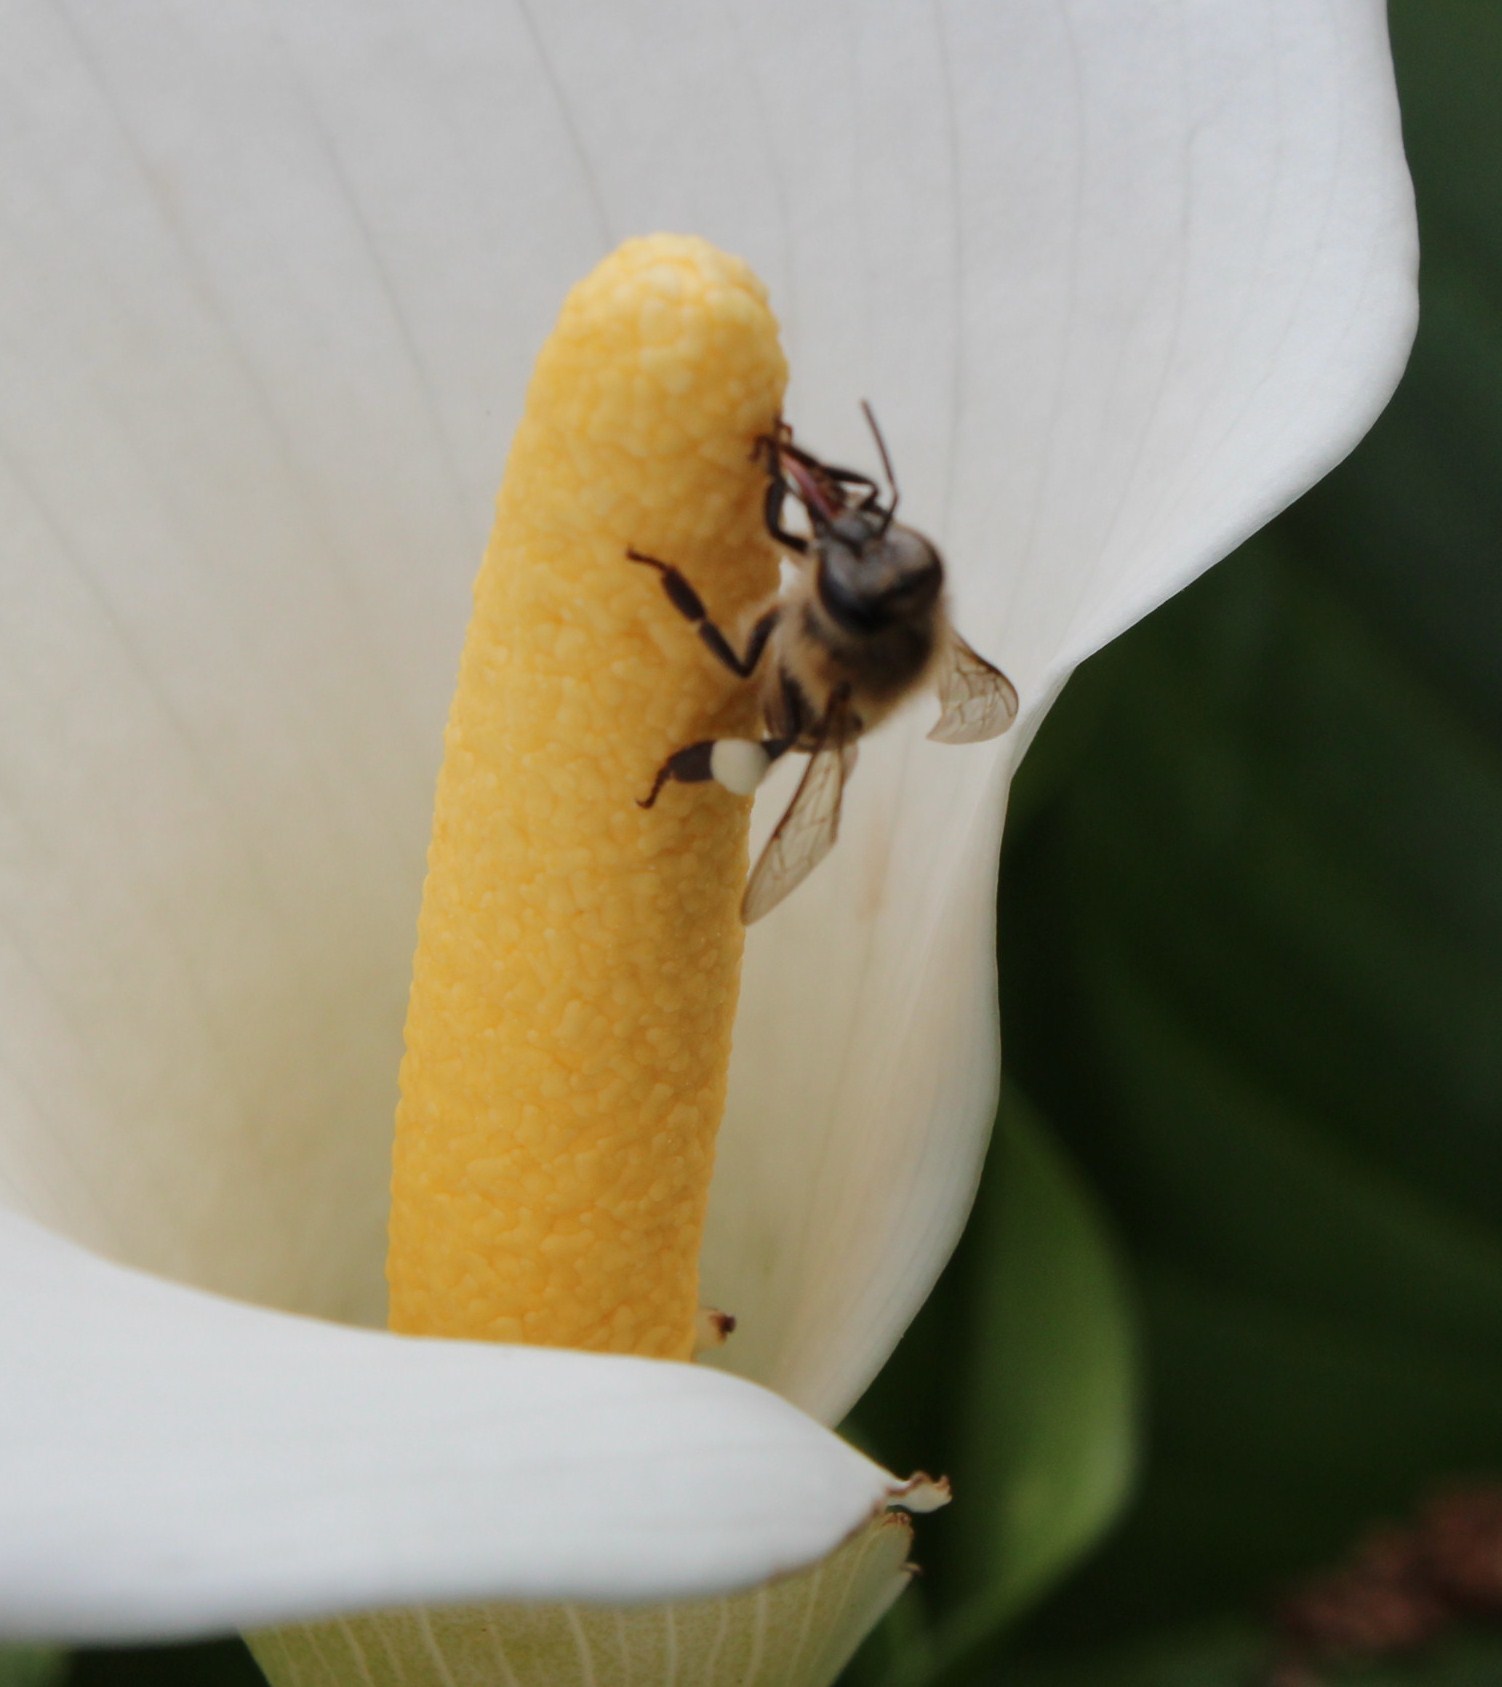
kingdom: Animalia
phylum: Arthropoda
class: Insecta
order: Hymenoptera
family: Apidae
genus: Apis
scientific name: Apis mellifera
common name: Honey bee
